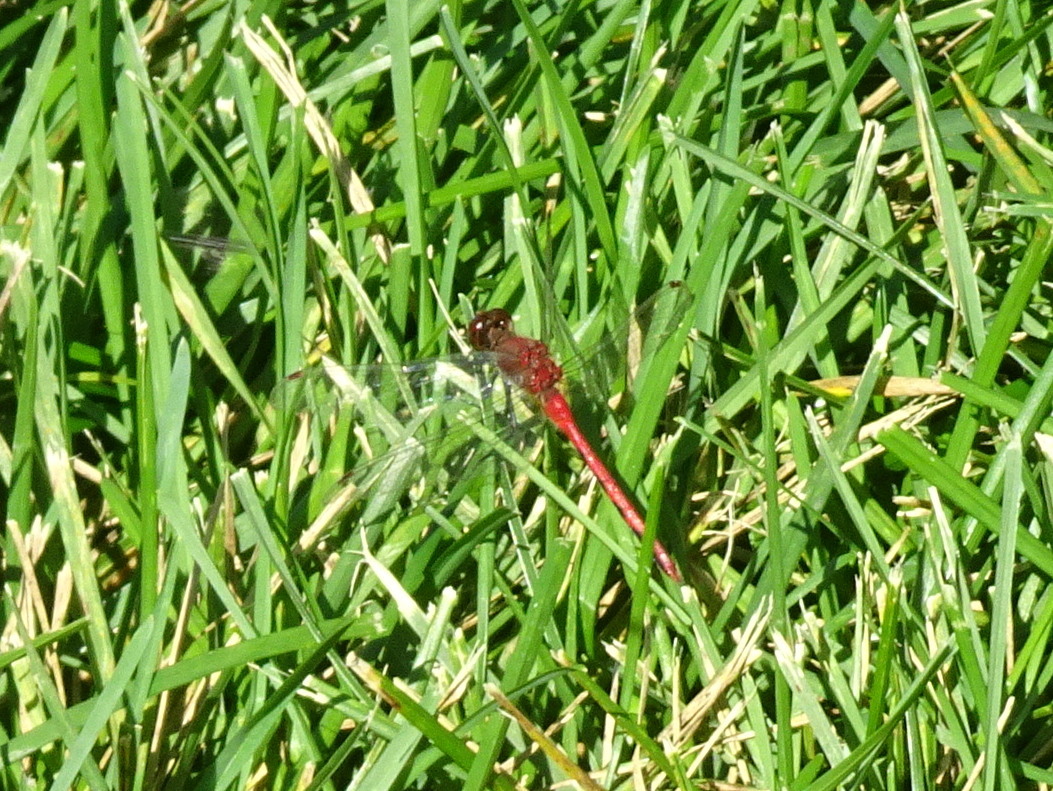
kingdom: Animalia
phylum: Arthropoda
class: Insecta
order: Odonata
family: Libellulidae
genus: Sympetrum
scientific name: Sympetrum obtrusum
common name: White-faced meadowhawk
